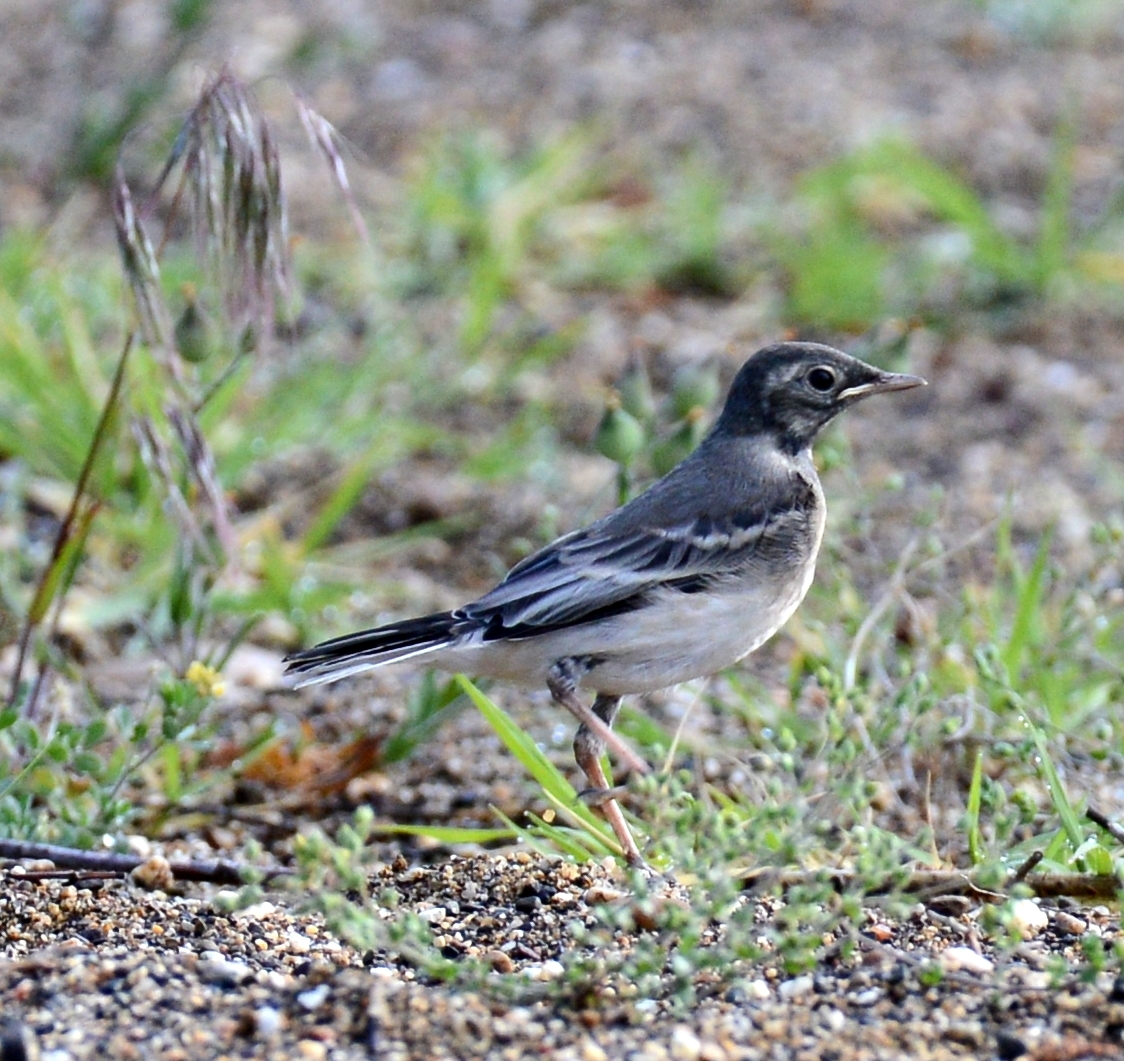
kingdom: Animalia
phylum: Chordata
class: Aves
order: Passeriformes
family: Motacillidae
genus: Motacilla
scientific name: Motacilla alba
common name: White wagtail
